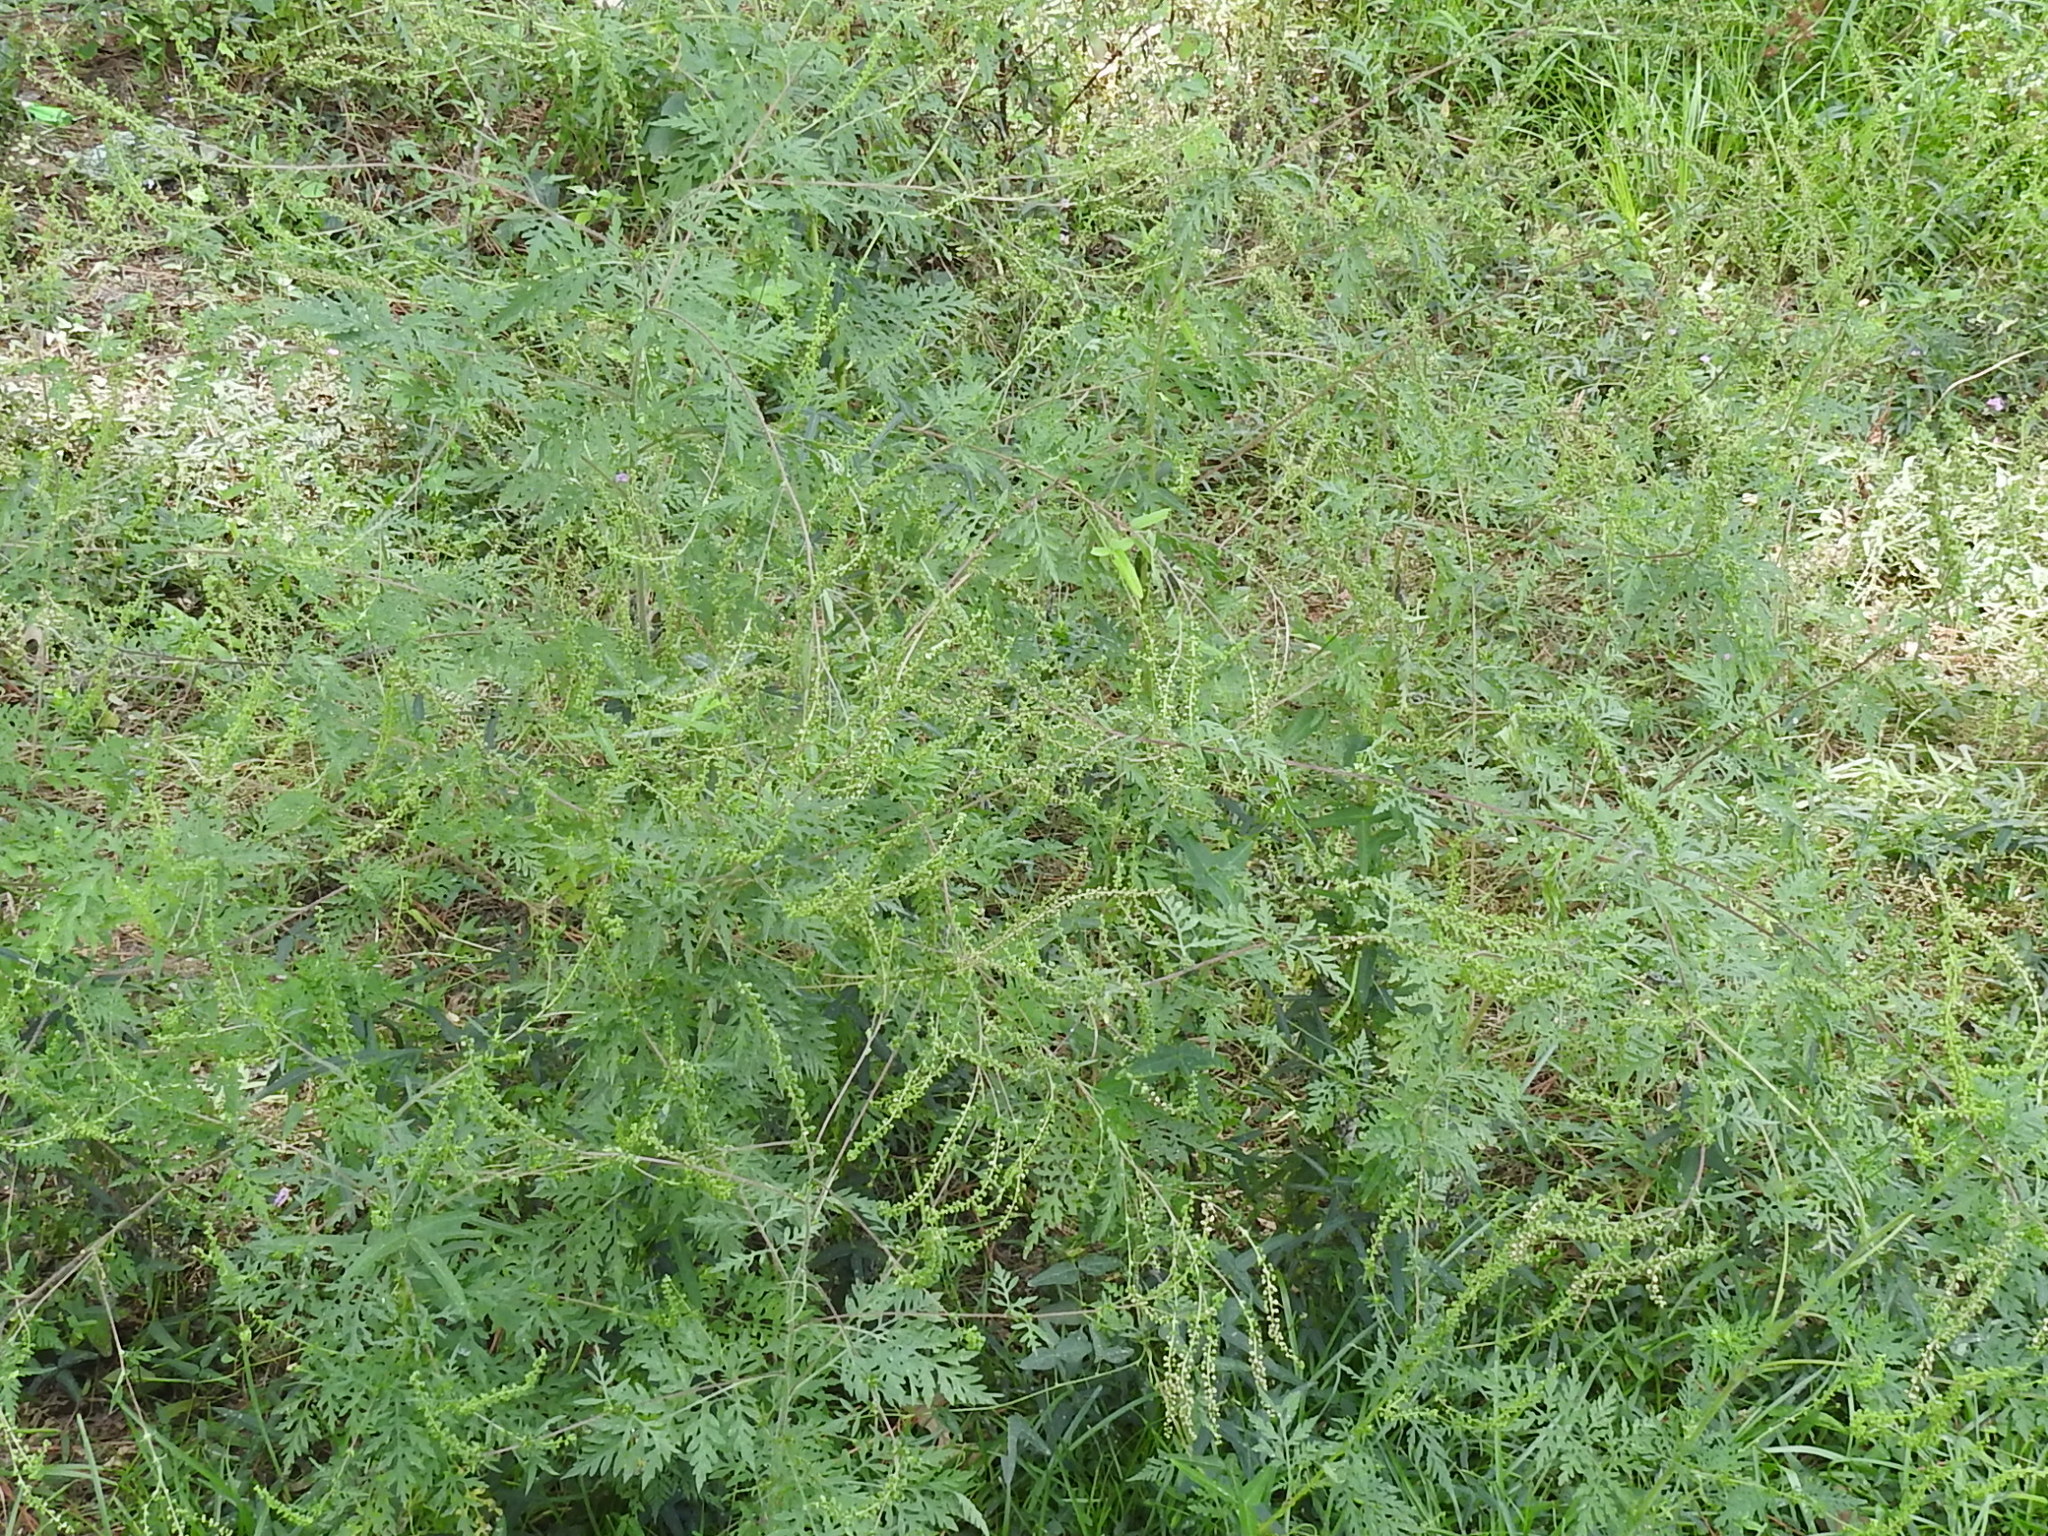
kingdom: Plantae
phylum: Tracheophyta
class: Magnoliopsida
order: Asterales
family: Asteraceae
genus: Ambrosia
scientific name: Ambrosia artemisiifolia
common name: Annual ragweed
